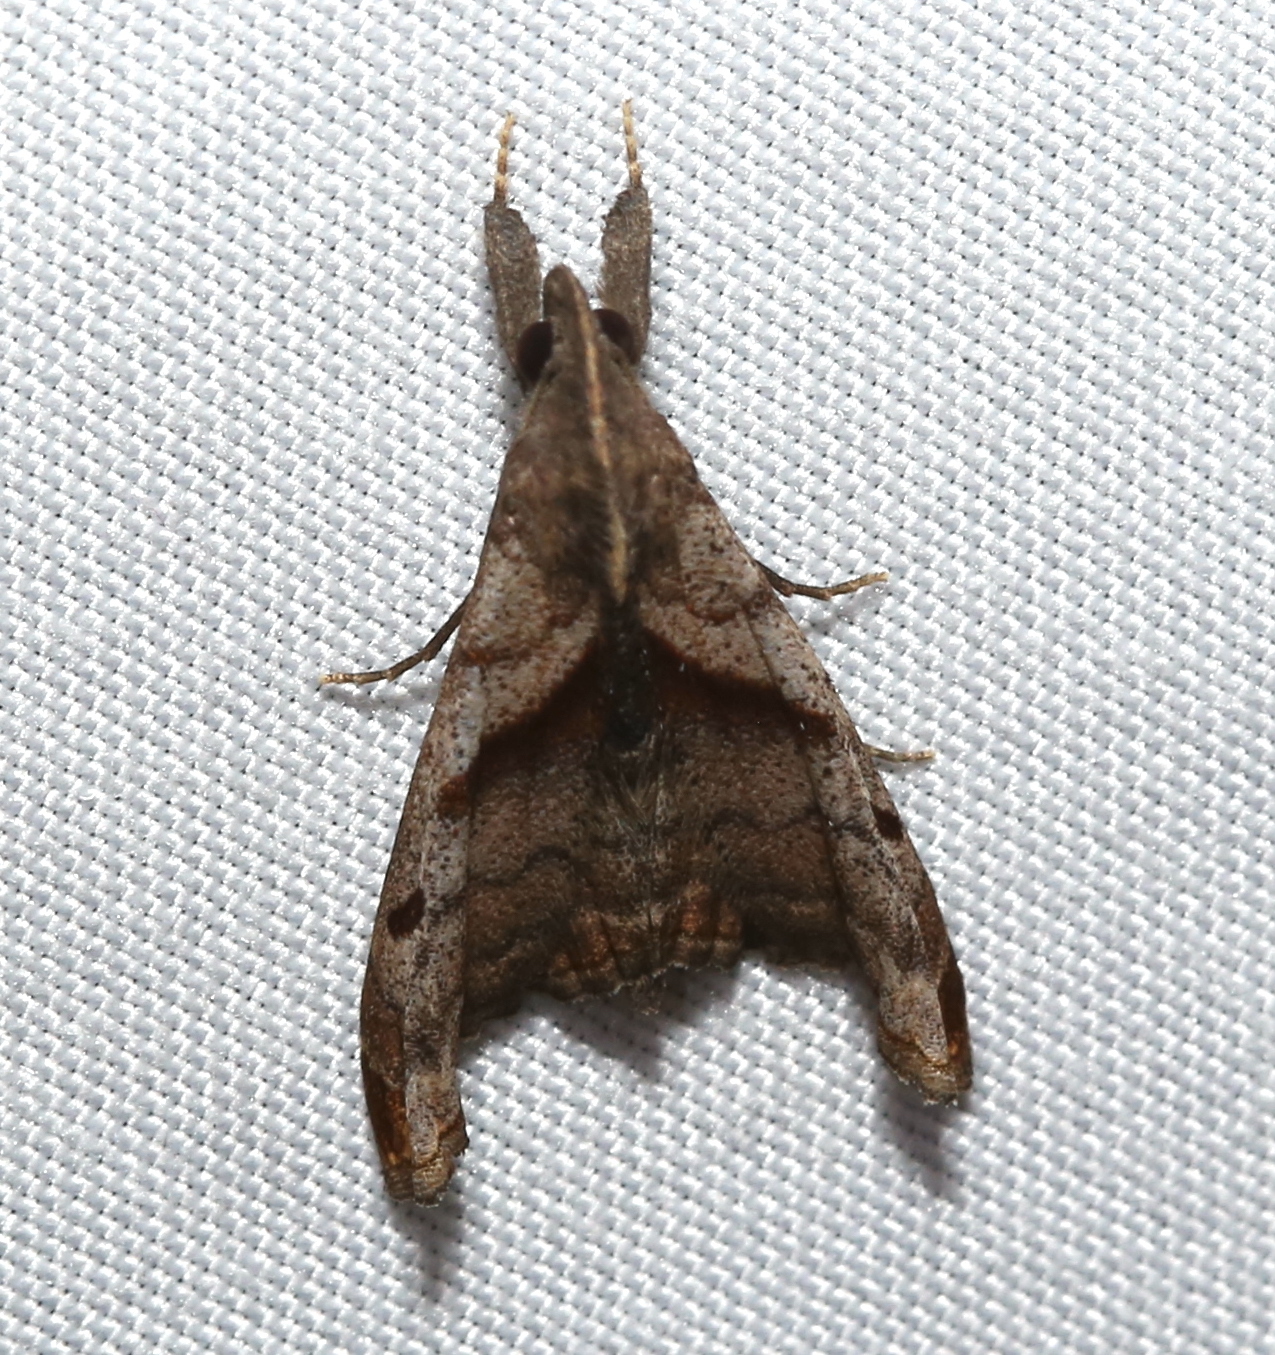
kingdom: Animalia
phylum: Arthropoda
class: Insecta
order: Lepidoptera
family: Erebidae
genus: Palthis
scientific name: Palthis angulalis
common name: Dark-spotted palthis moth
